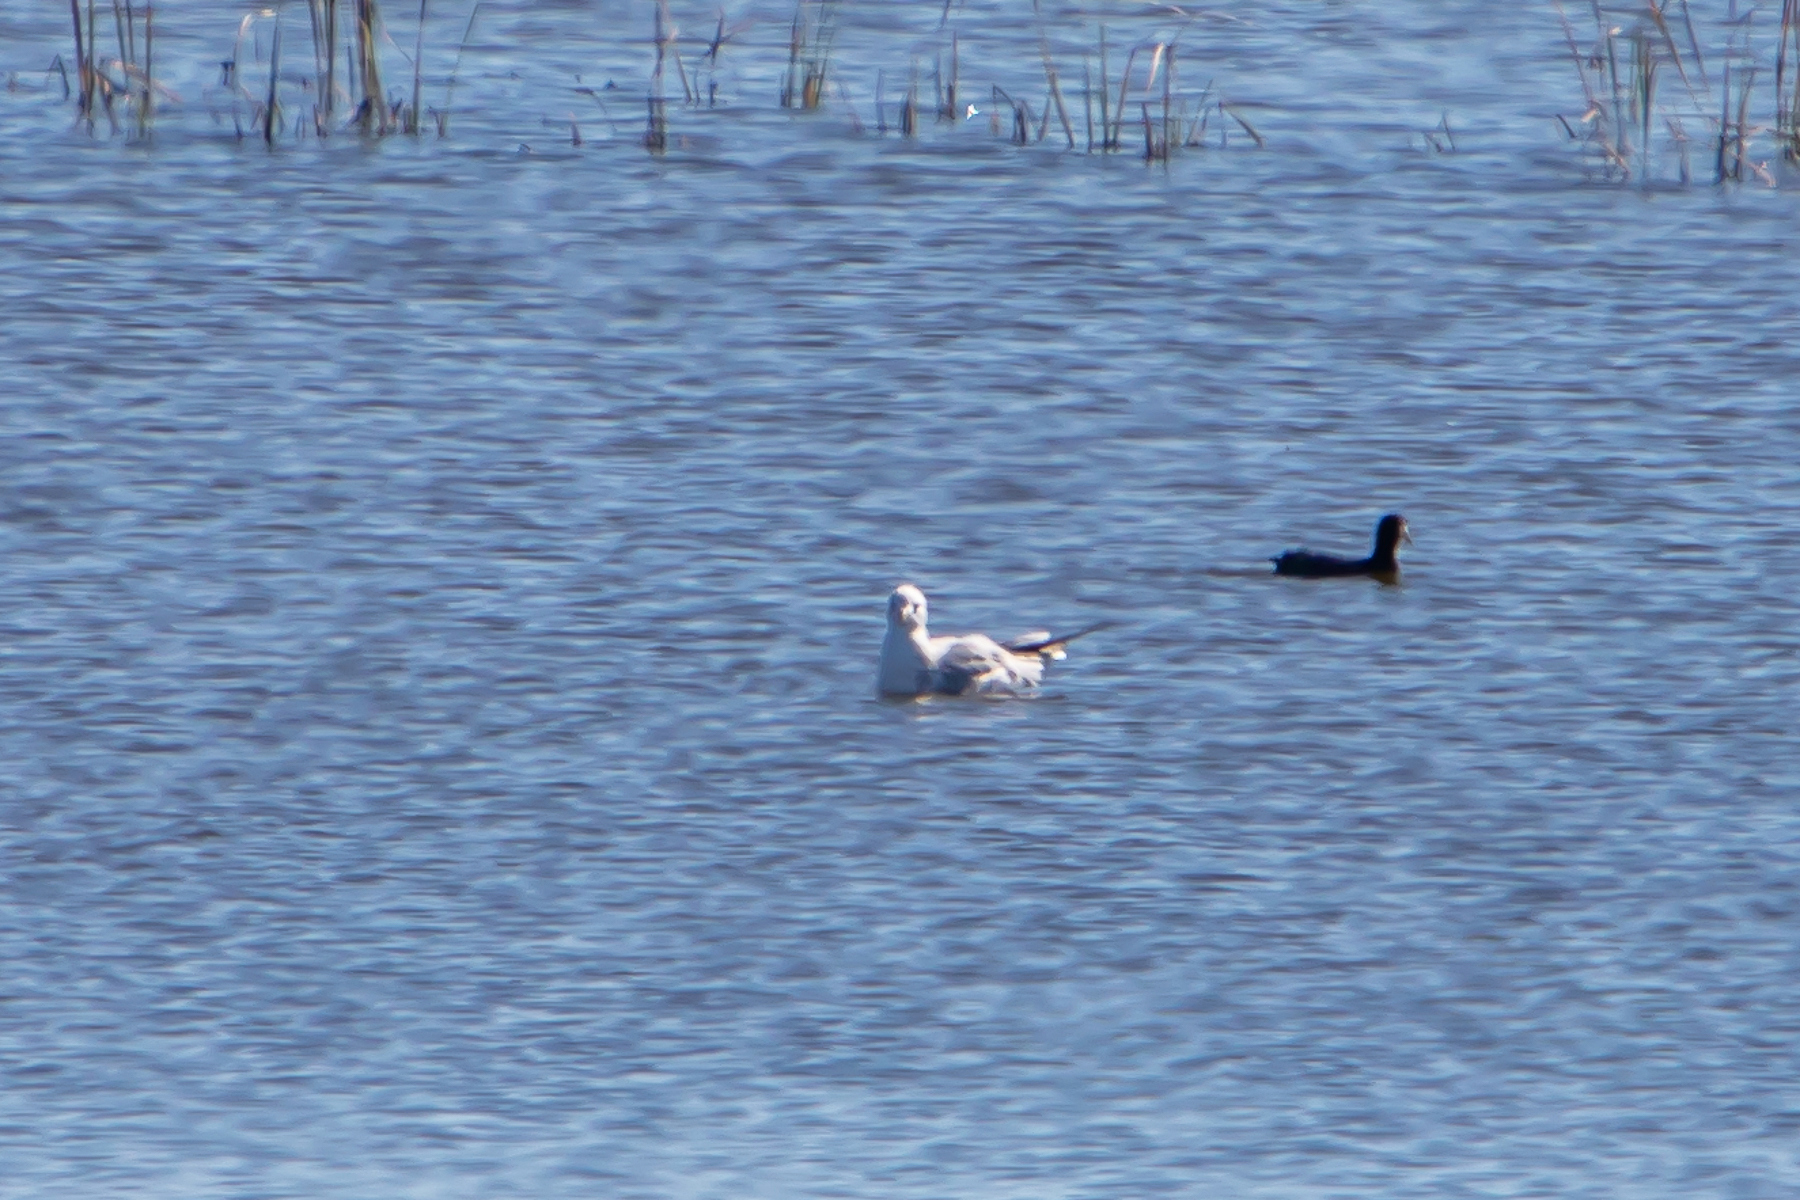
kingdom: Animalia
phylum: Chordata
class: Aves
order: Charadriiformes
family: Laridae
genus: Larus
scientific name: Larus argentatus
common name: Herring gull
